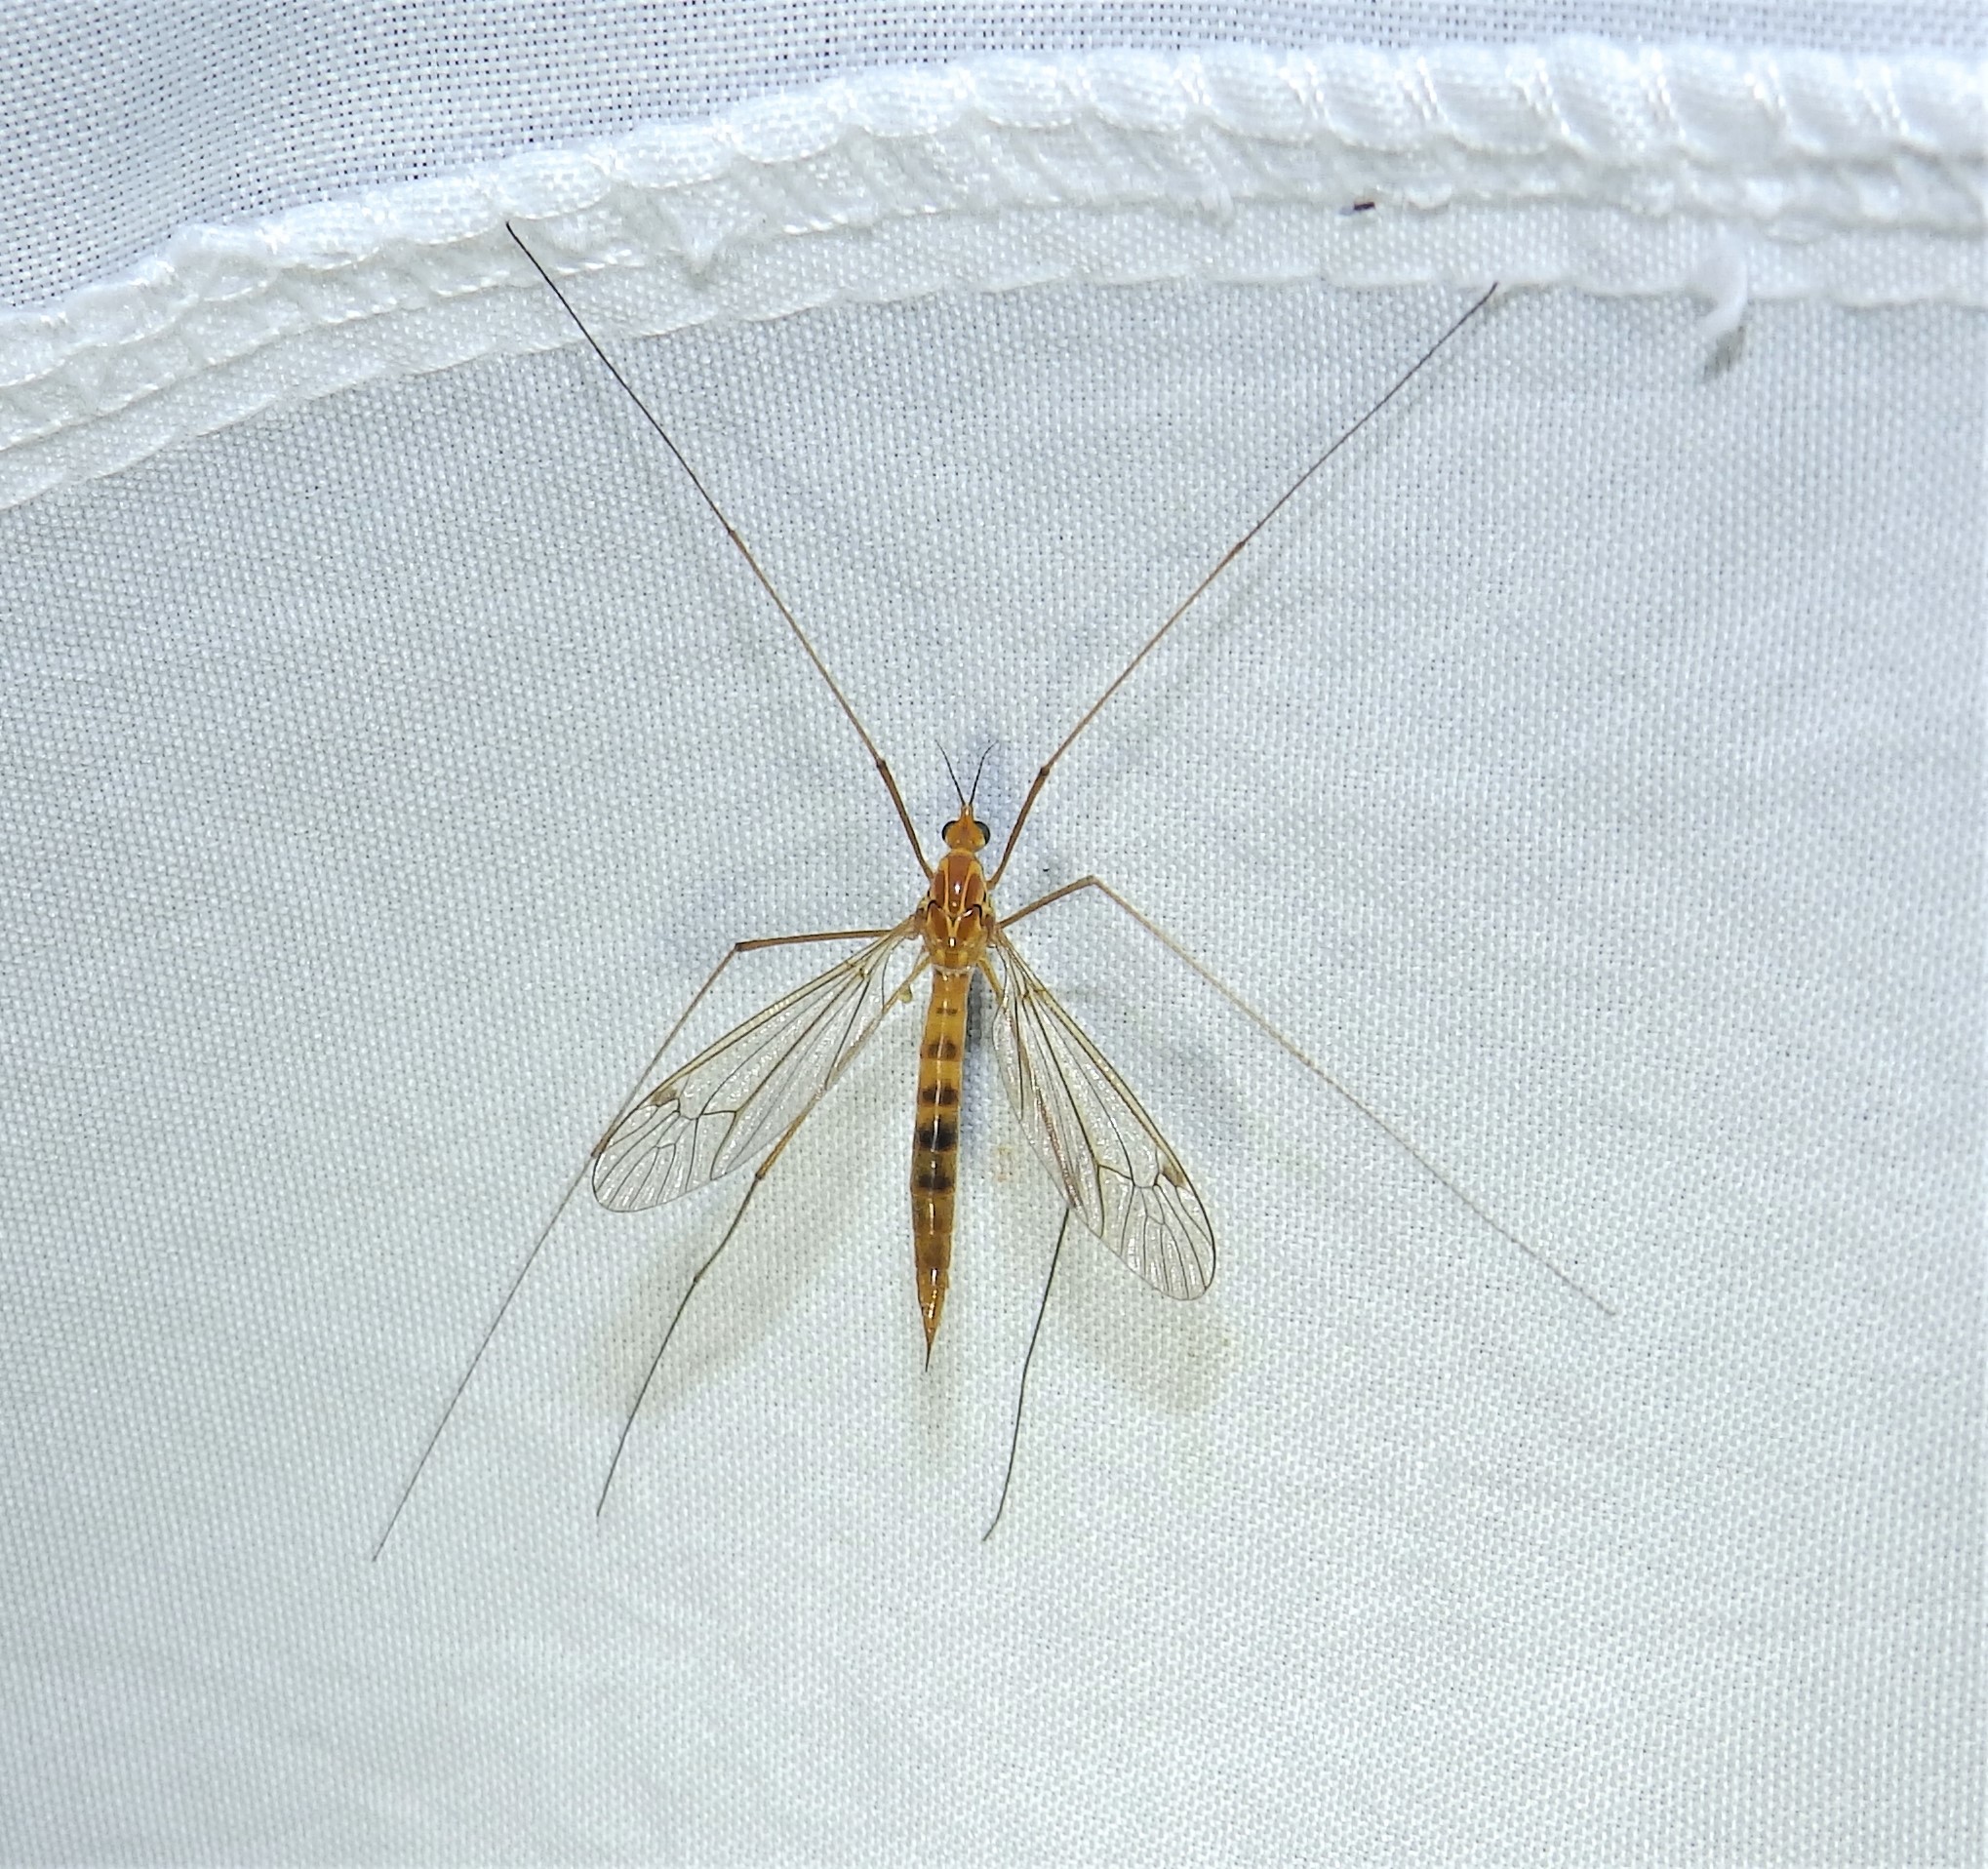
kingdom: Animalia
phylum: Arthropoda
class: Insecta
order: Diptera
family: Tipulidae
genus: Nephrotoma
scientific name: Nephrotoma ferruginea
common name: Ferruginous tiger crane fly
